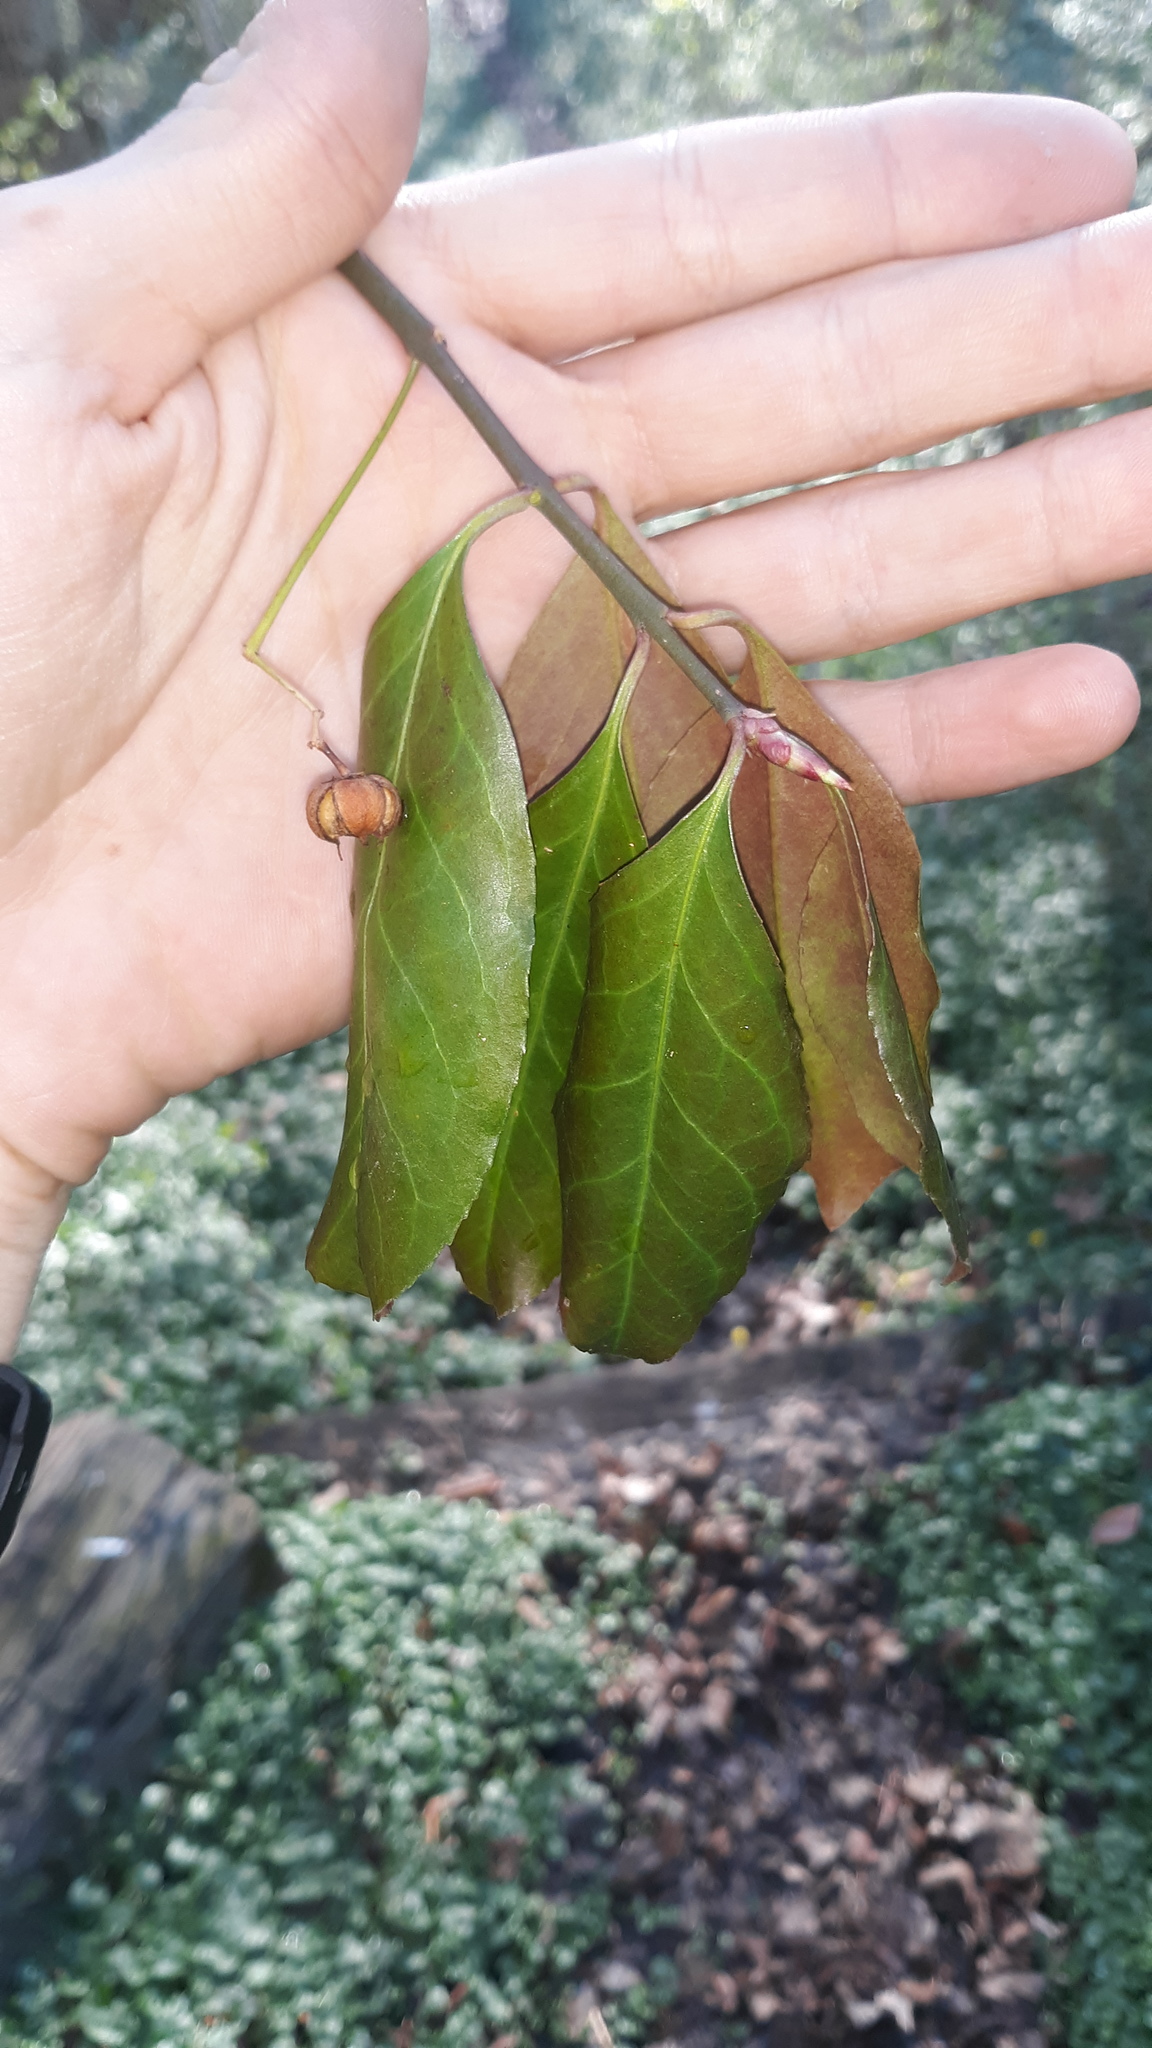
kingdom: Plantae
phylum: Tracheophyta
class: Magnoliopsida
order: Celastrales
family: Celastraceae
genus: Euonymus
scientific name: Euonymus fortunei
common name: Climbing euonymus
